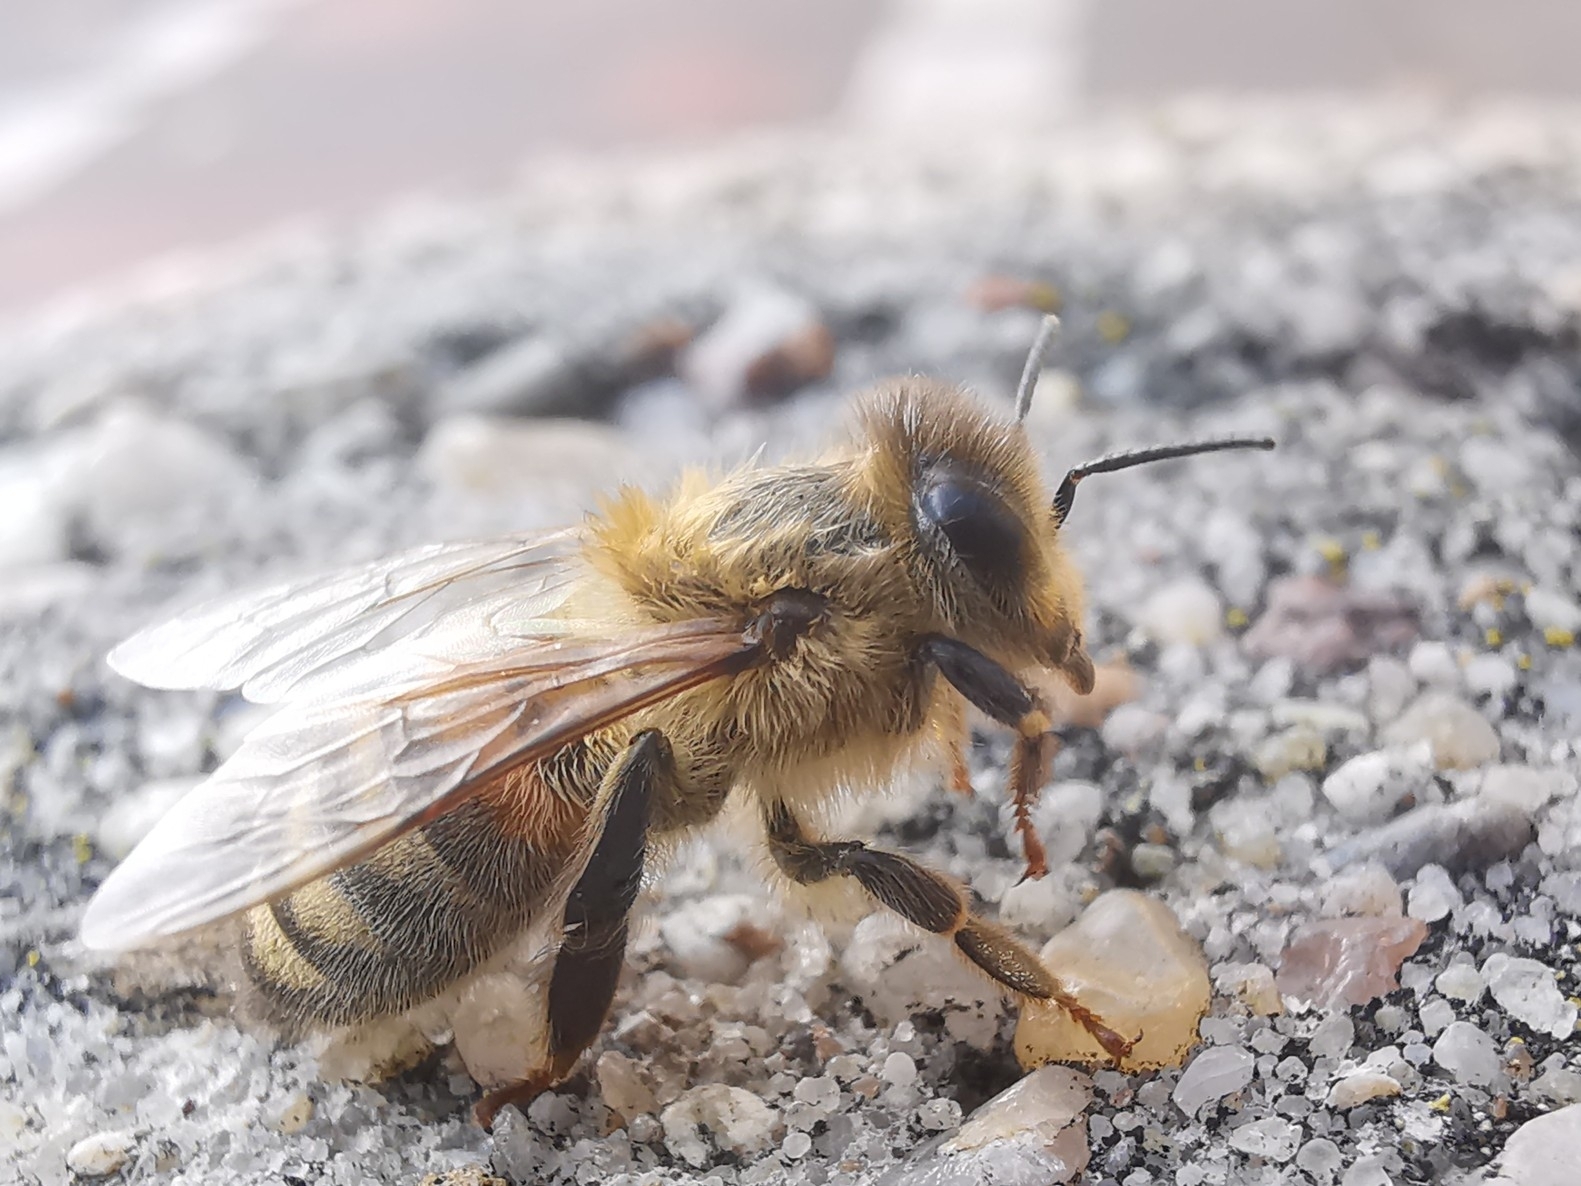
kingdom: Animalia
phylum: Arthropoda
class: Insecta
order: Hymenoptera
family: Apidae
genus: Apis
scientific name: Apis mellifera
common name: Honey bee
